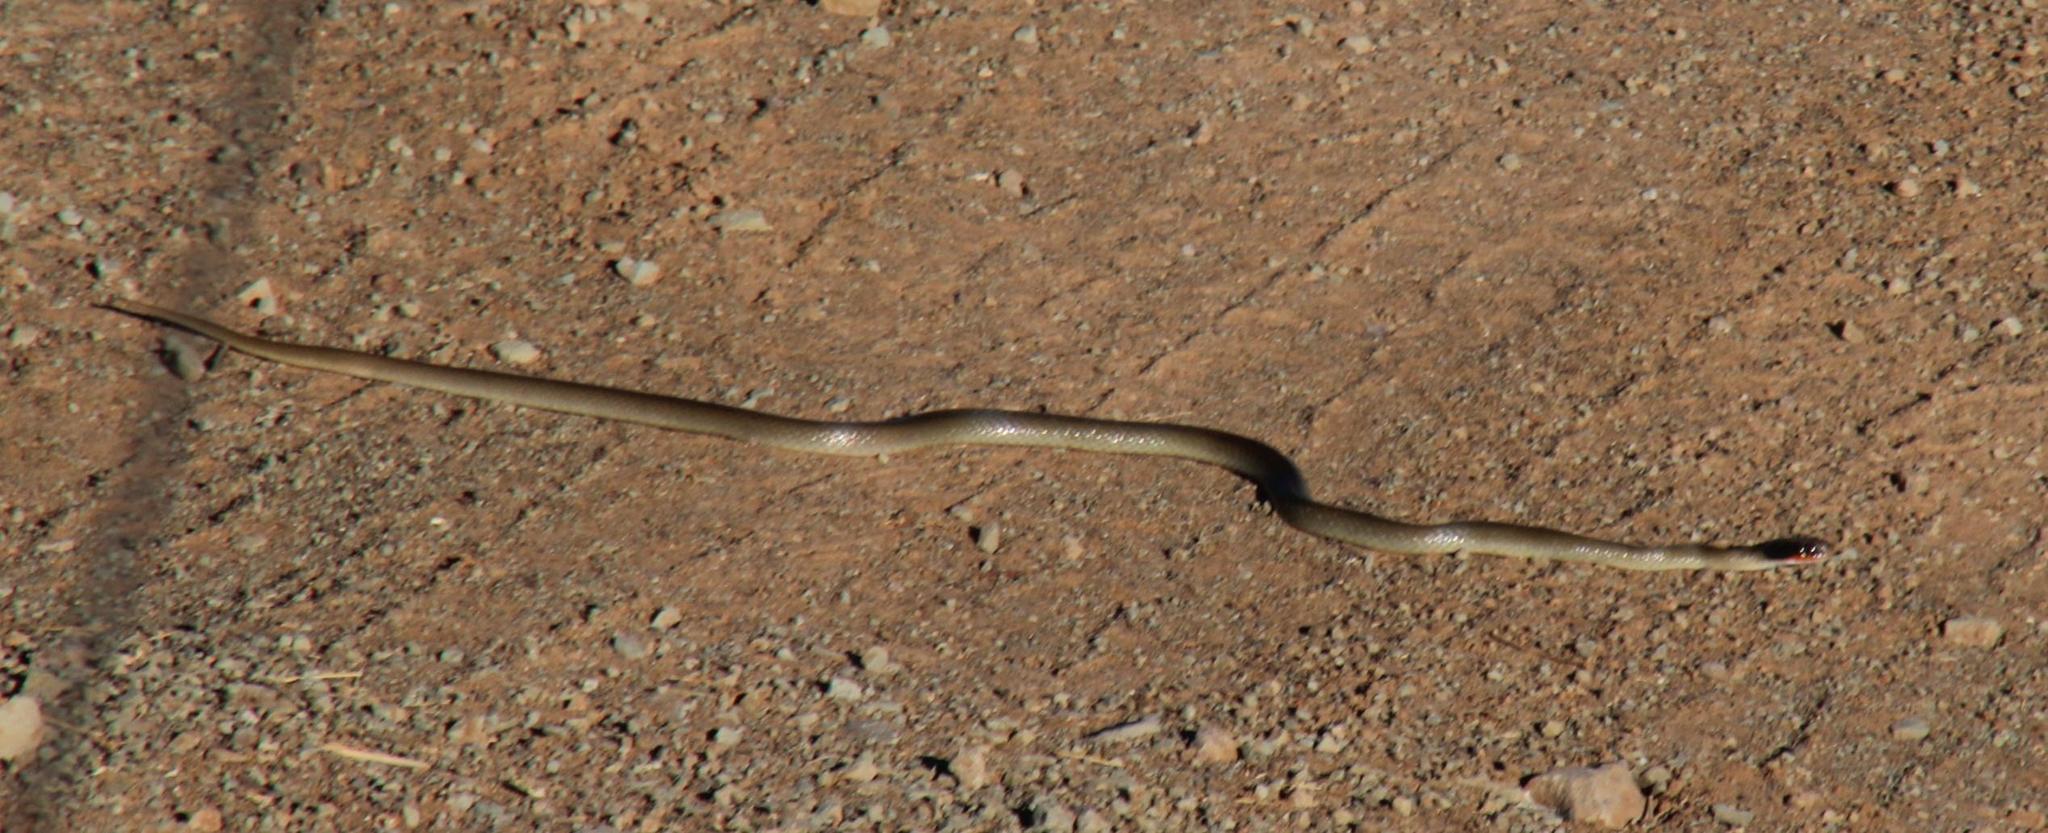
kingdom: Animalia
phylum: Chordata
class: Squamata
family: Colubridae
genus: Crotaphopeltis
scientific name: Crotaphopeltis hotamboeia
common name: Red-lipped snake
